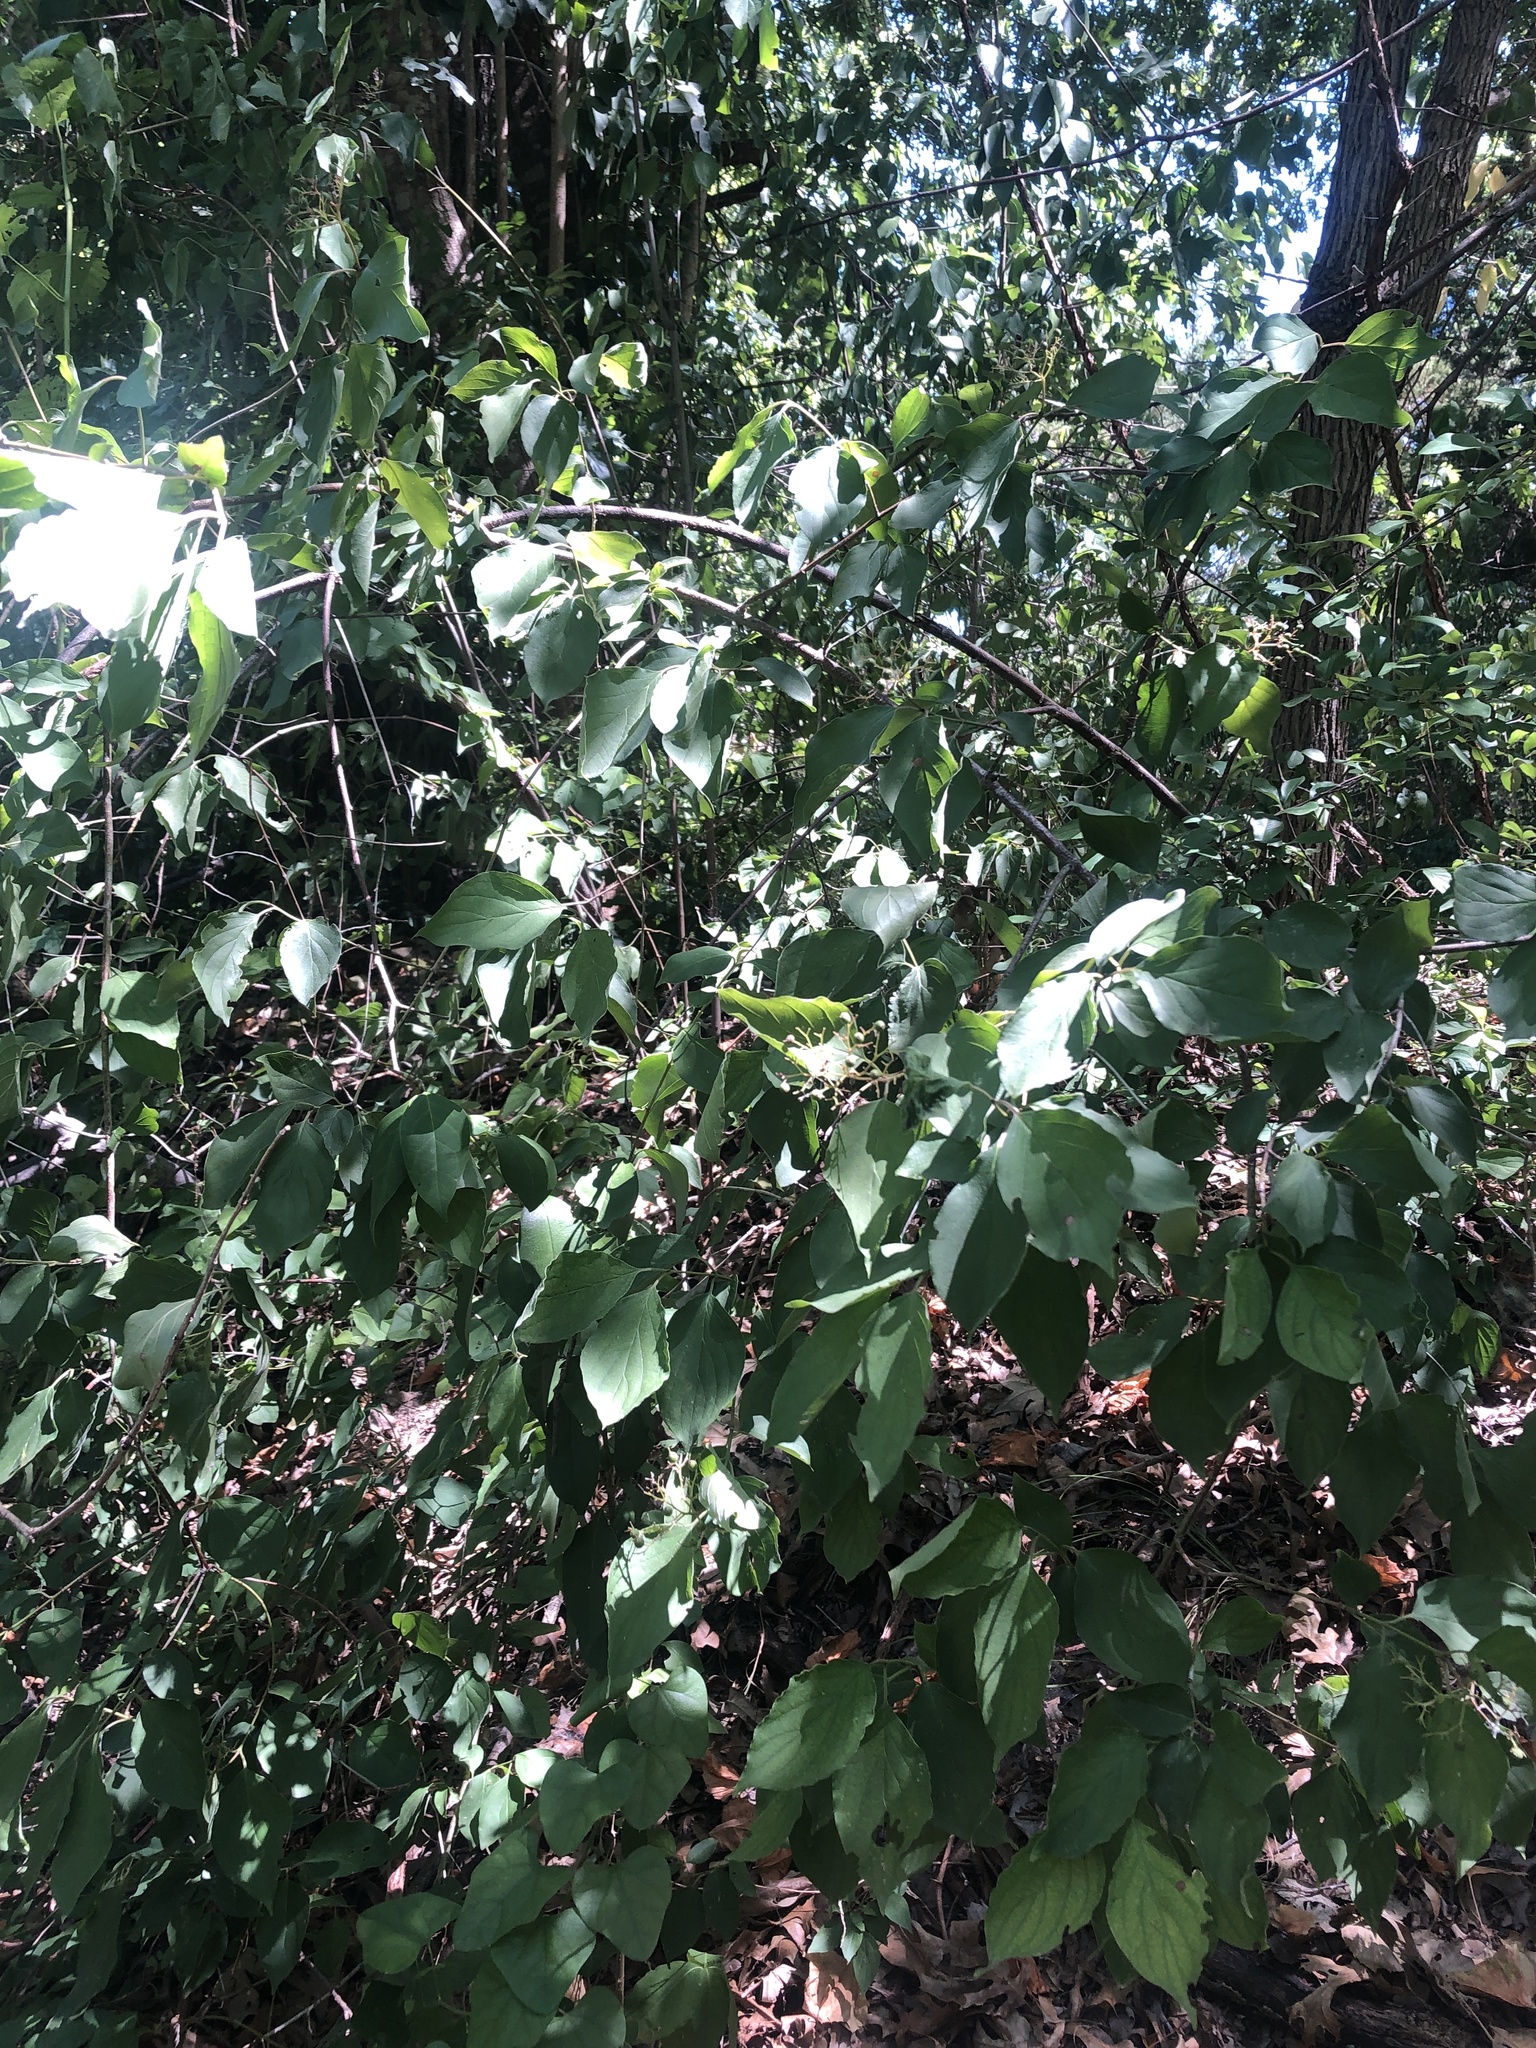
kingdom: Plantae
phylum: Tracheophyta
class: Magnoliopsida
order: Cornales
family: Cornaceae
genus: Cornus
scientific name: Cornus drummondii
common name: Rough-leaf dogwood
